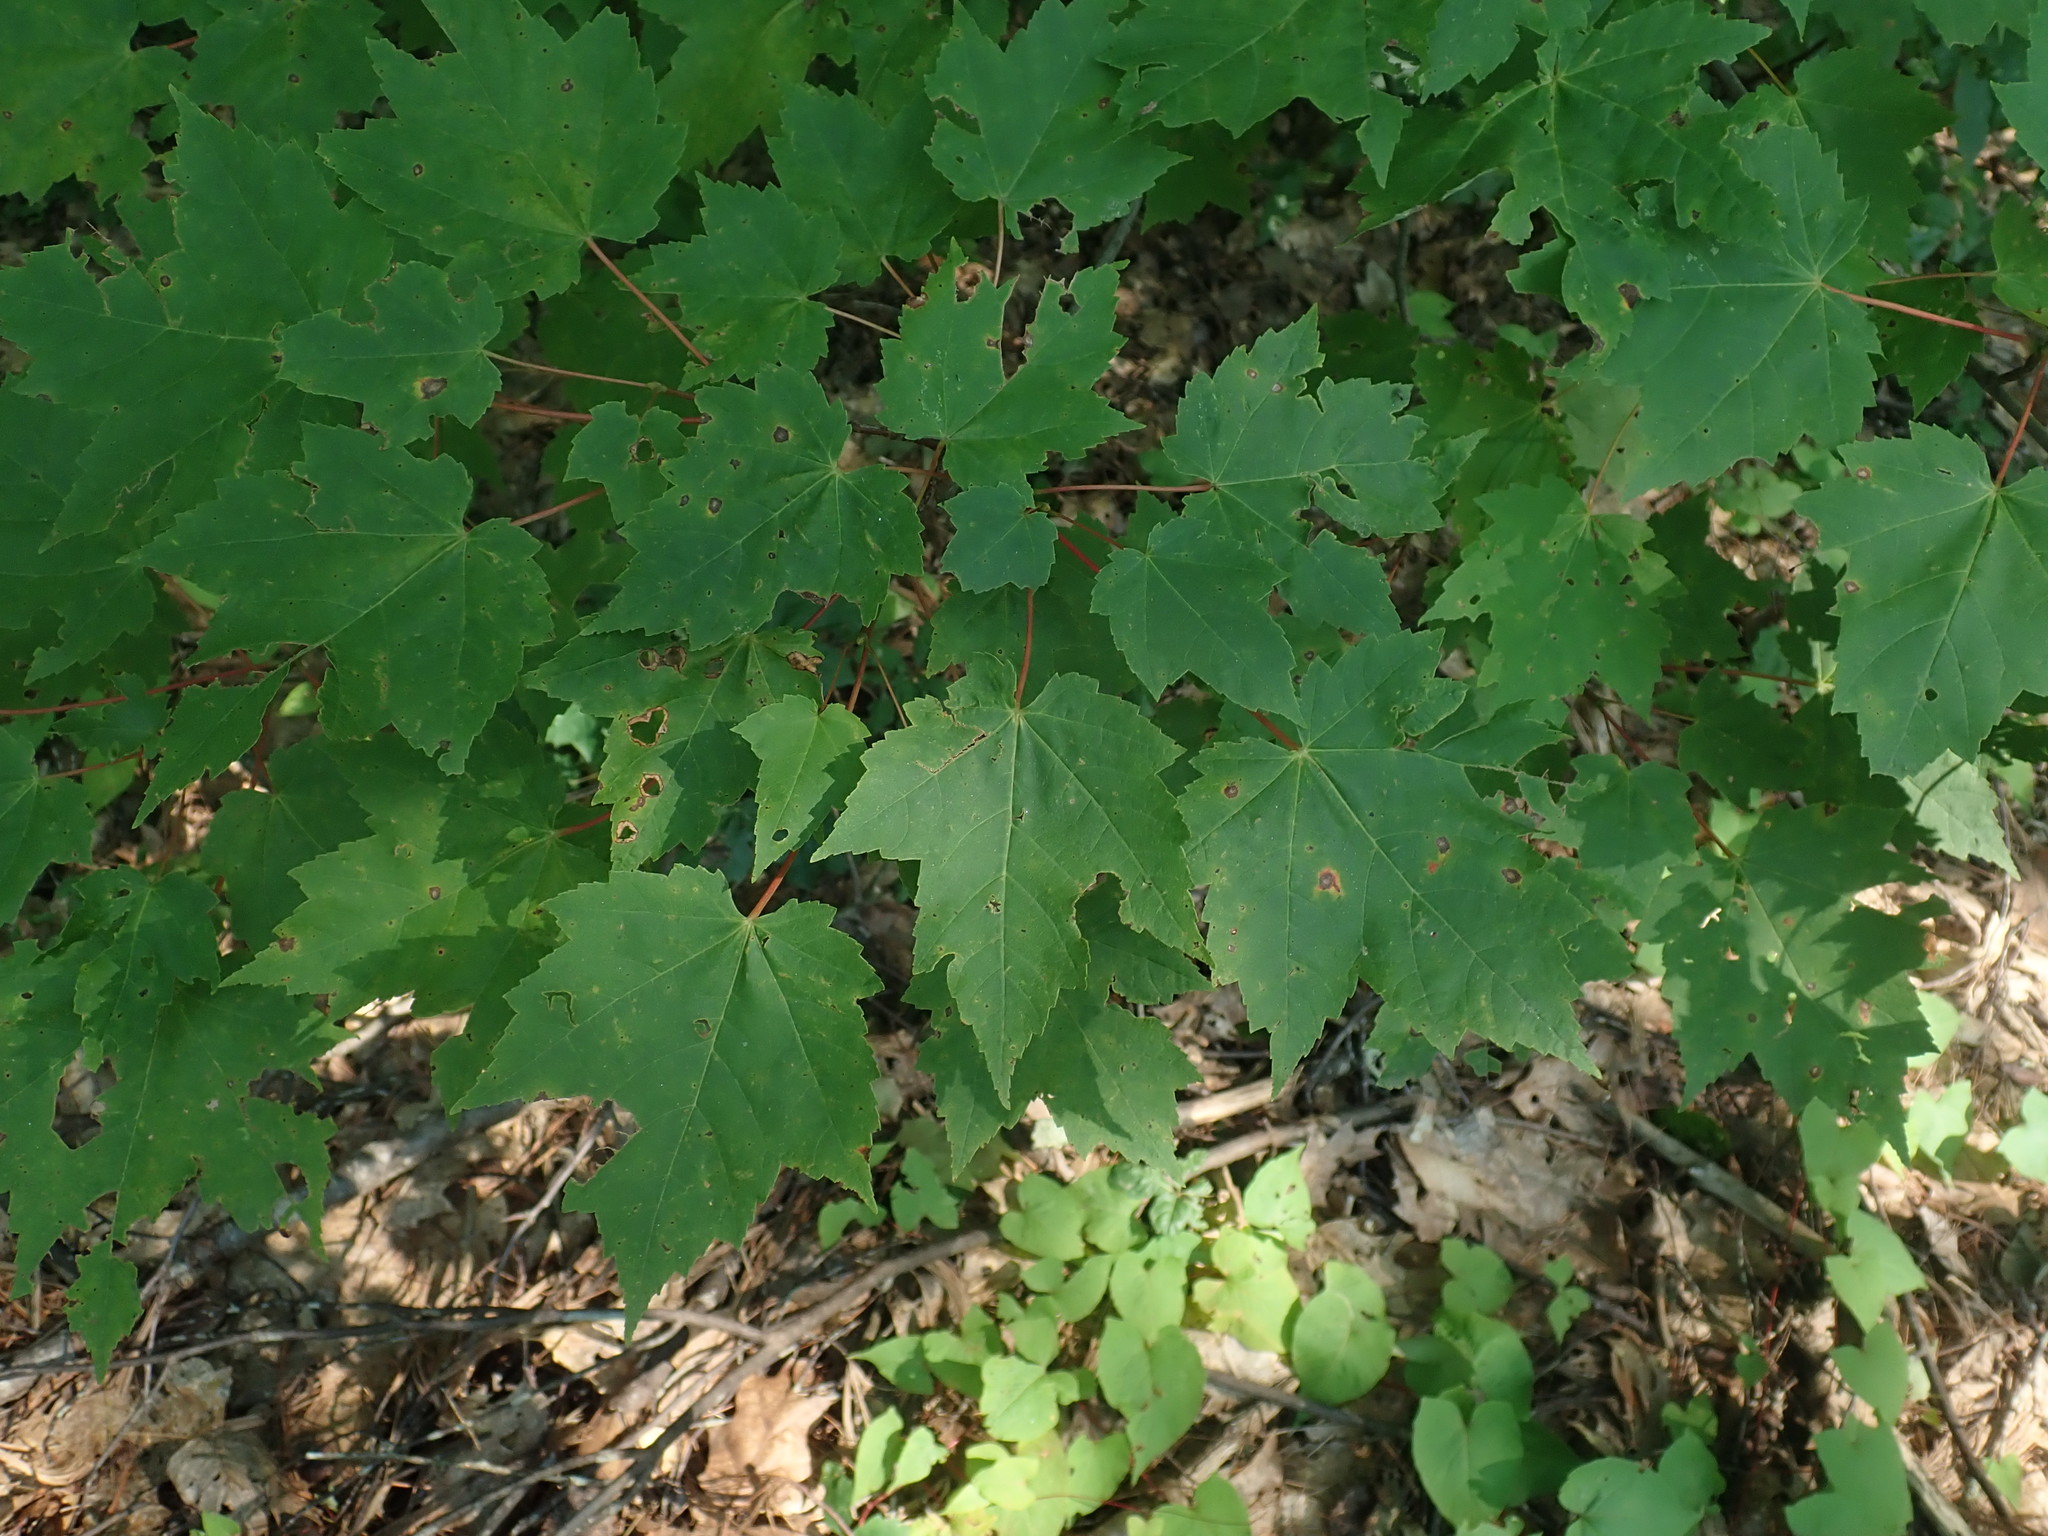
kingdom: Plantae
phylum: Tracheophyta
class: Magnoliopsida
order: Sapindales
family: Sapindaceae
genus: Acer
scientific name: Acer rubrum
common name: Red maple
